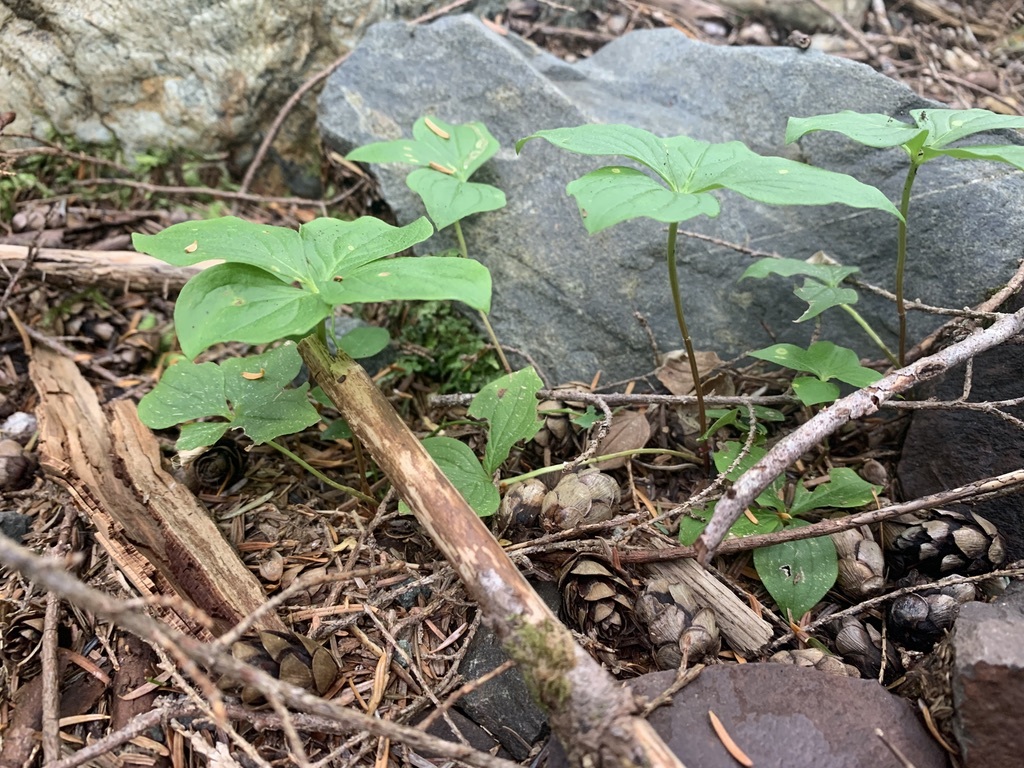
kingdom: Plantae
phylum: Tracheophyta
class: Magnoliopsida
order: Cornales
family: Cornaceae
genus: Cornus
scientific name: Cornus unalaschkensis
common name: Alaska bunchberry
